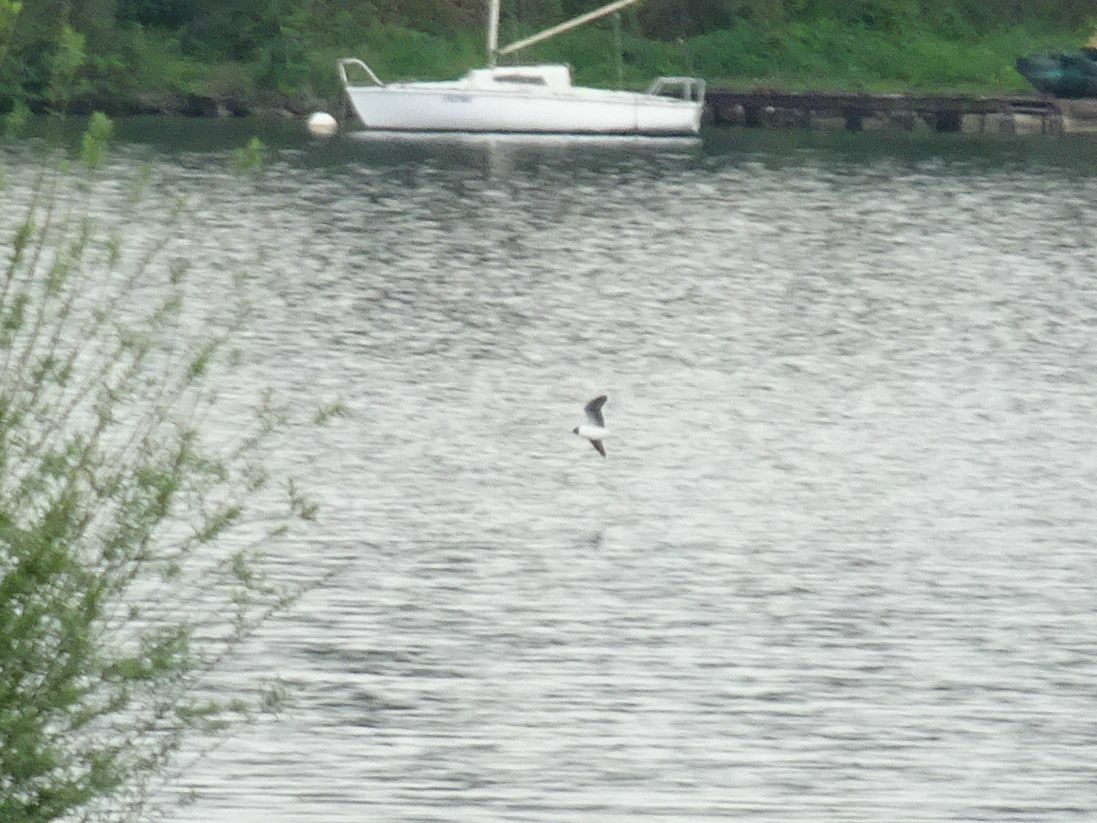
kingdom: Animalia
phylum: Chordata
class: Aves
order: Charadriiformes
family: Laridae
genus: Hydrocoloeus
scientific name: Hydrocoloeus minutus
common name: Little gull
